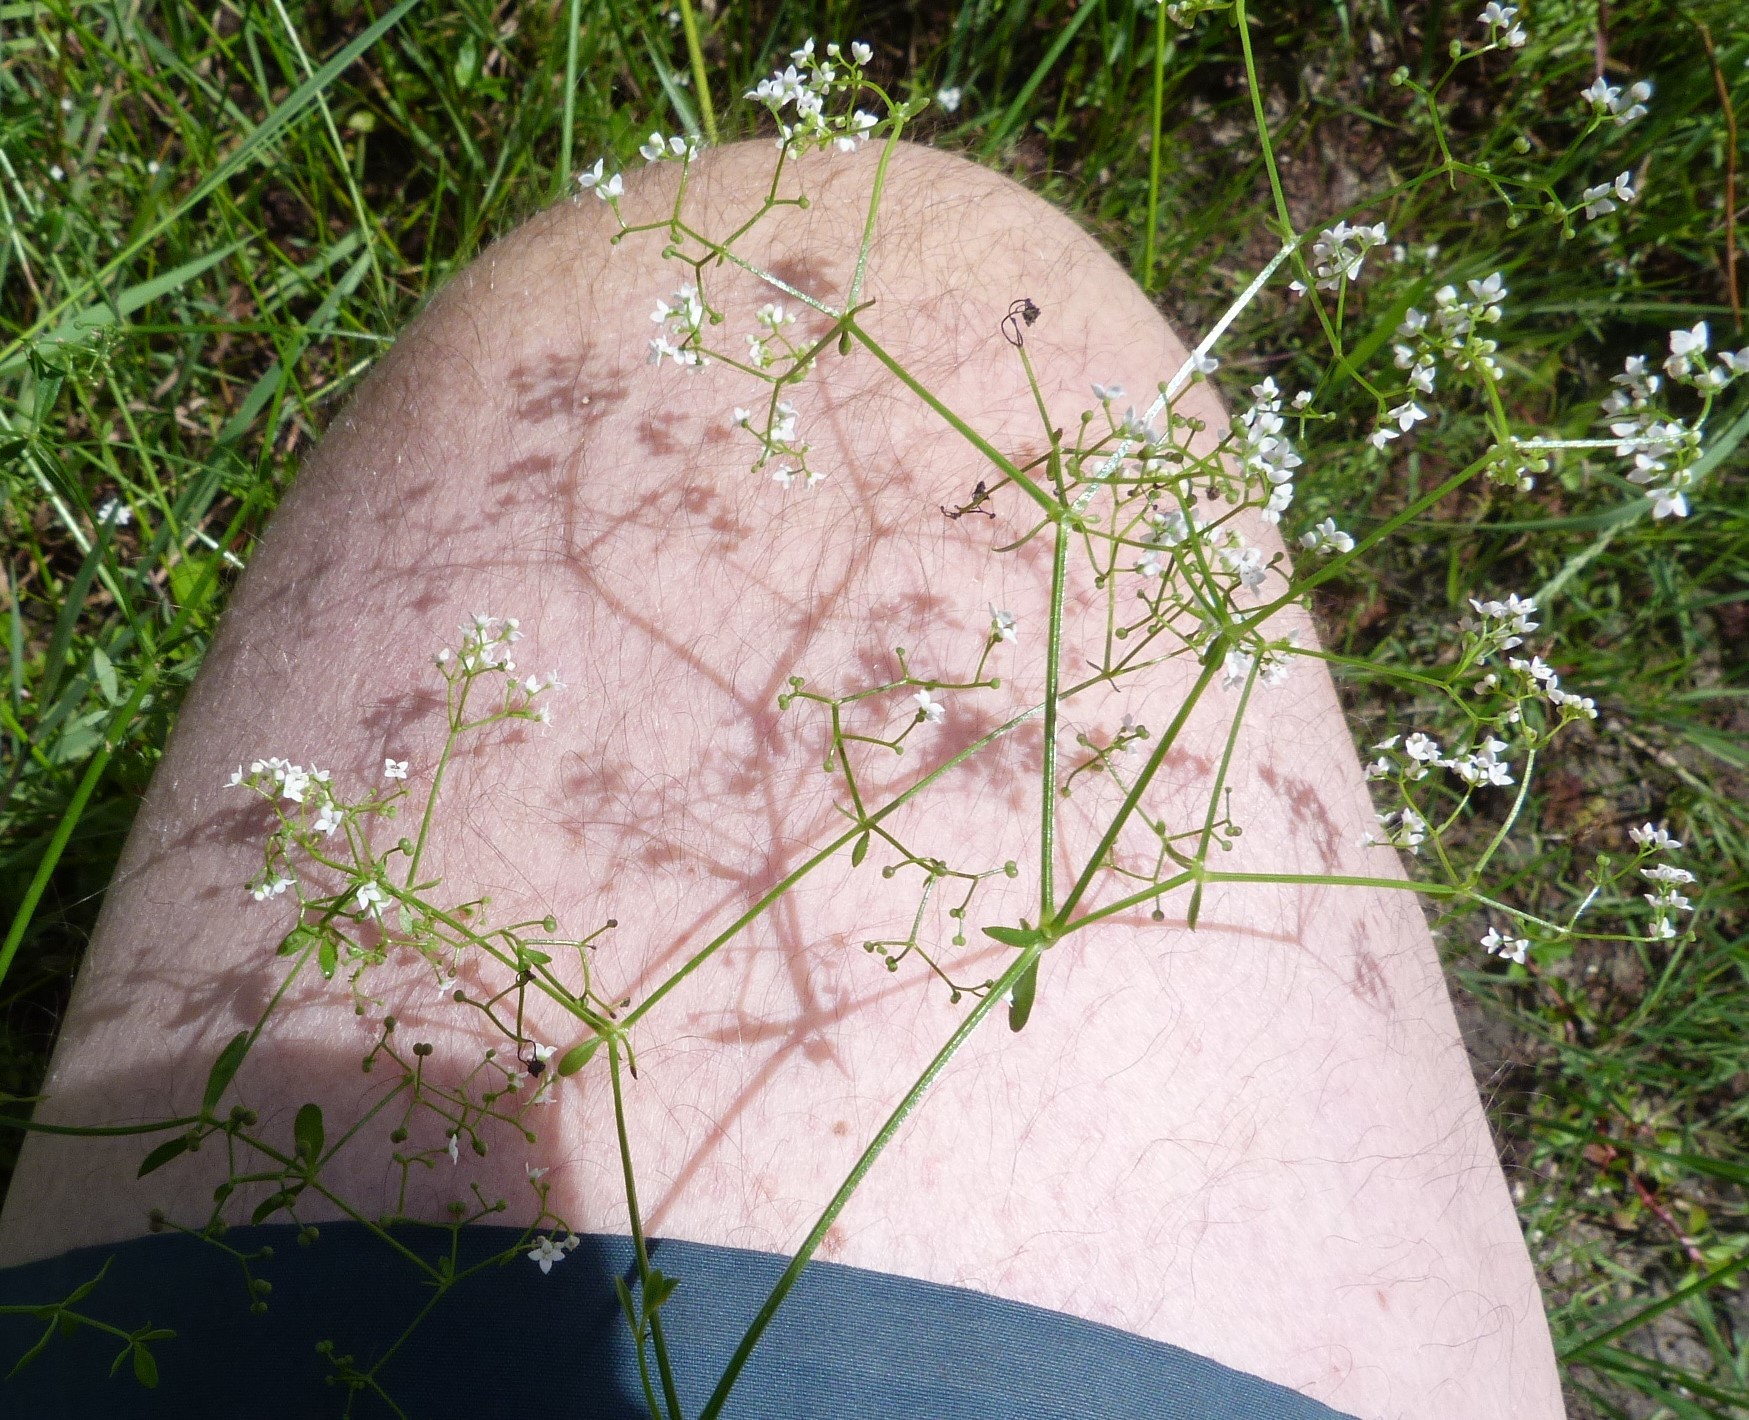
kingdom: Plantae
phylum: Tracheophyta
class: Magnoliopsida
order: Gentianales
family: Rubiaceae
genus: Galium
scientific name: Galium palustre
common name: Common marsh-bedstraw
